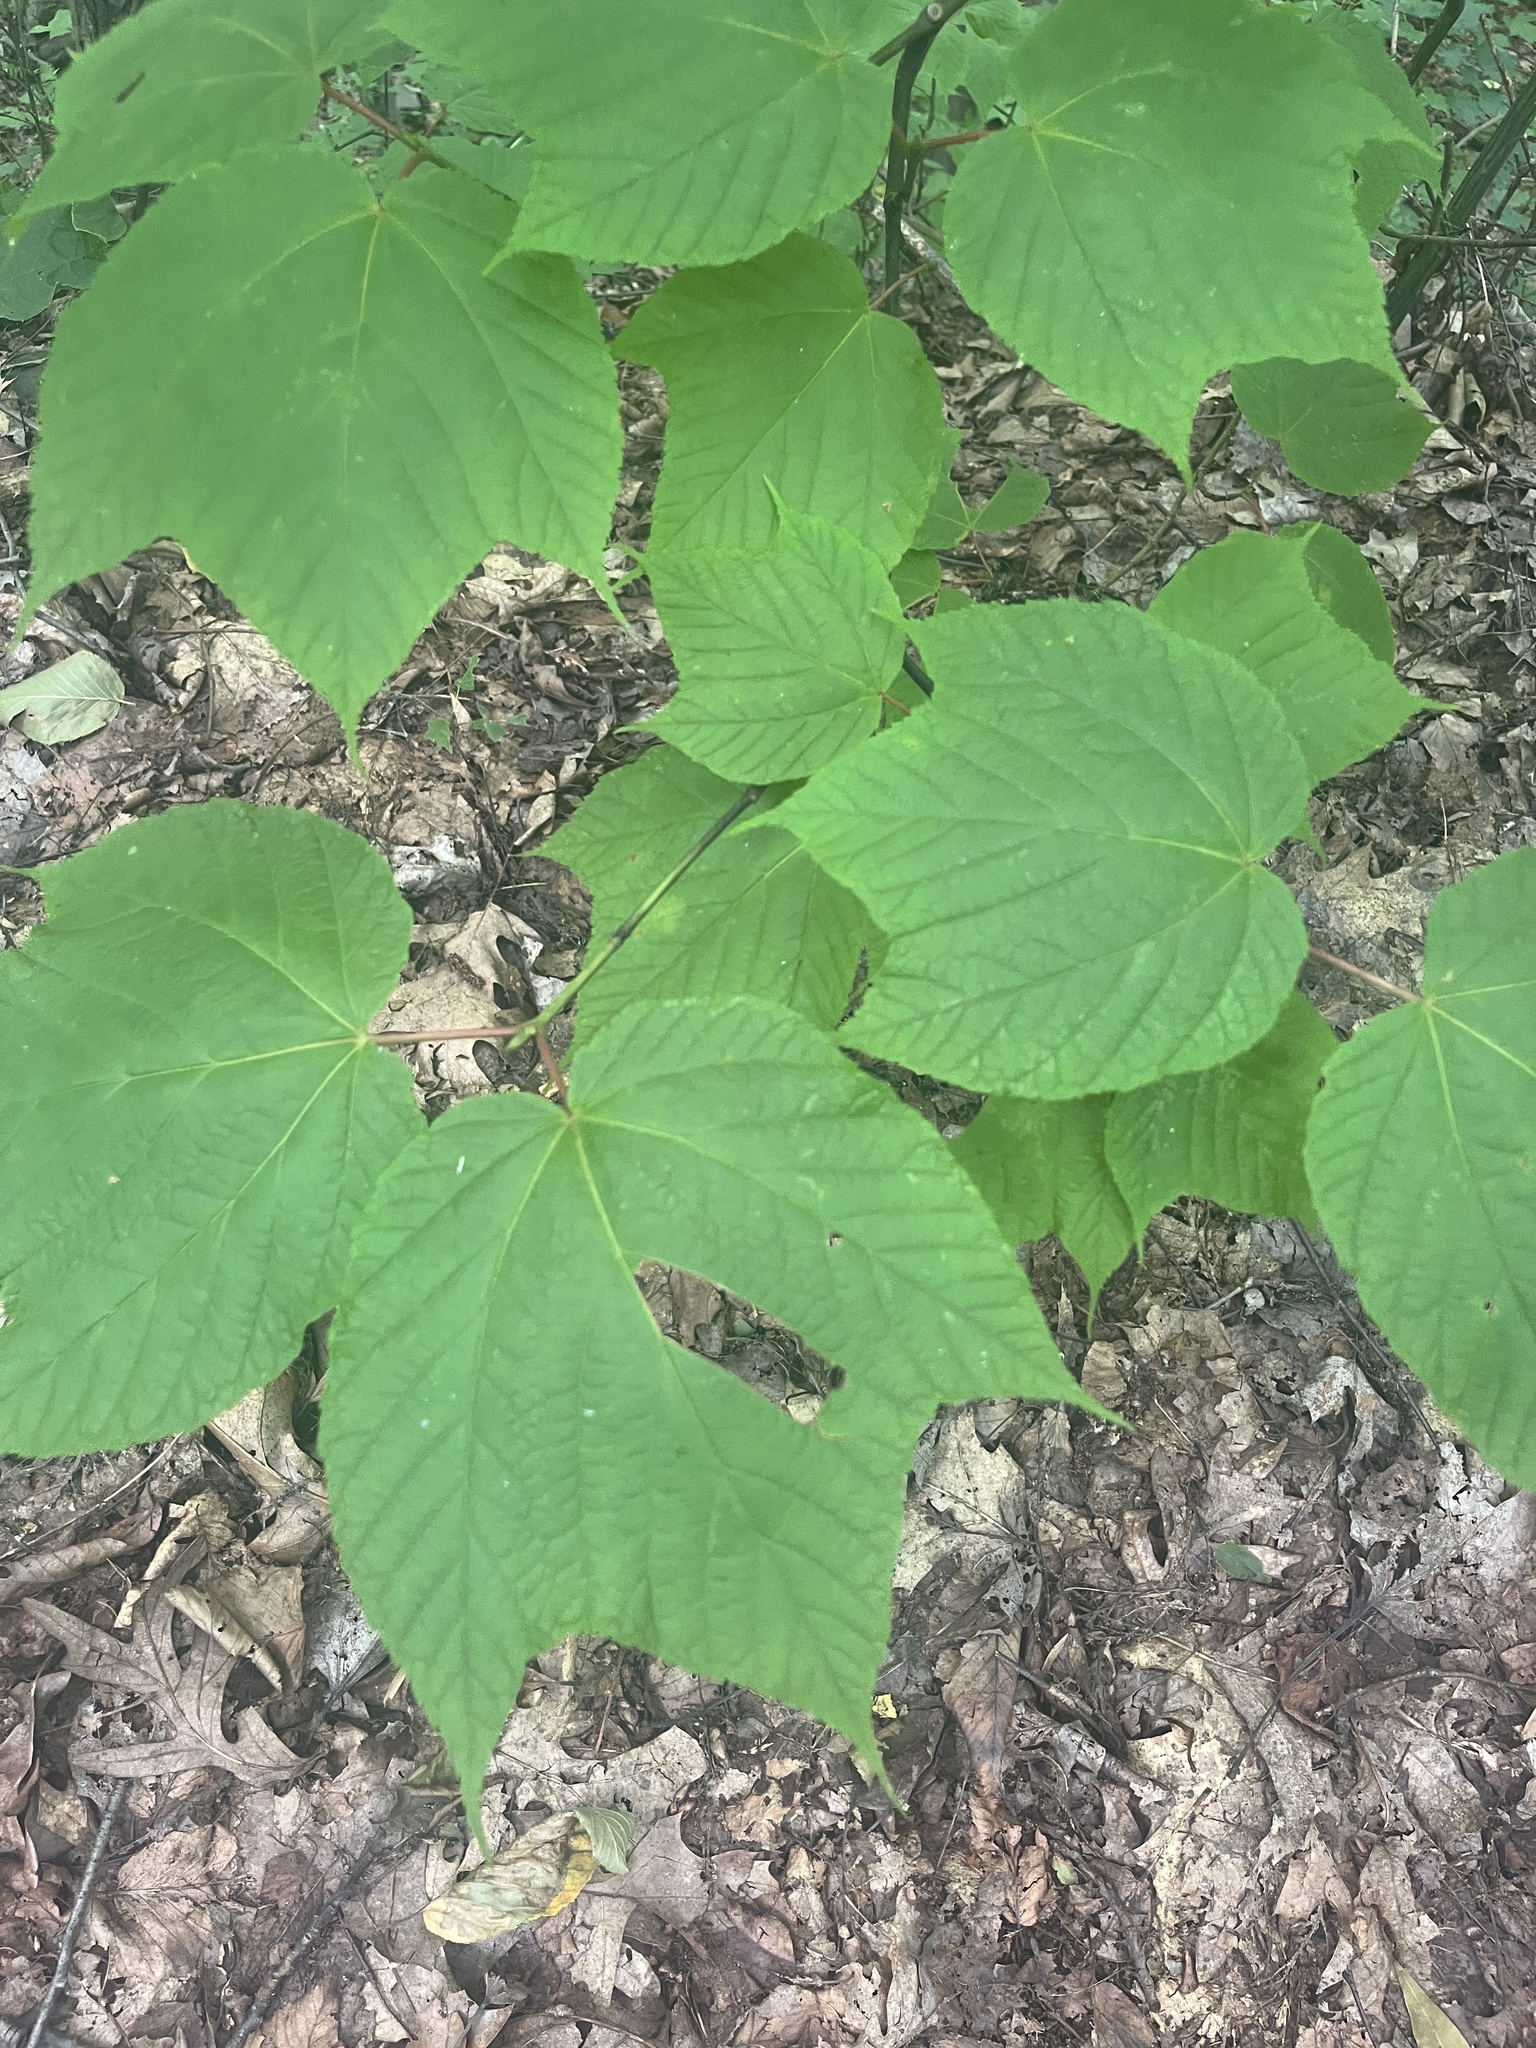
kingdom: Plantae
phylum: Tracheophyta
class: Magnoliopsida
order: Sapindales
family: Sapindaceae
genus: Acer
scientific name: Acer pensylvanicum
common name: Moosewood
